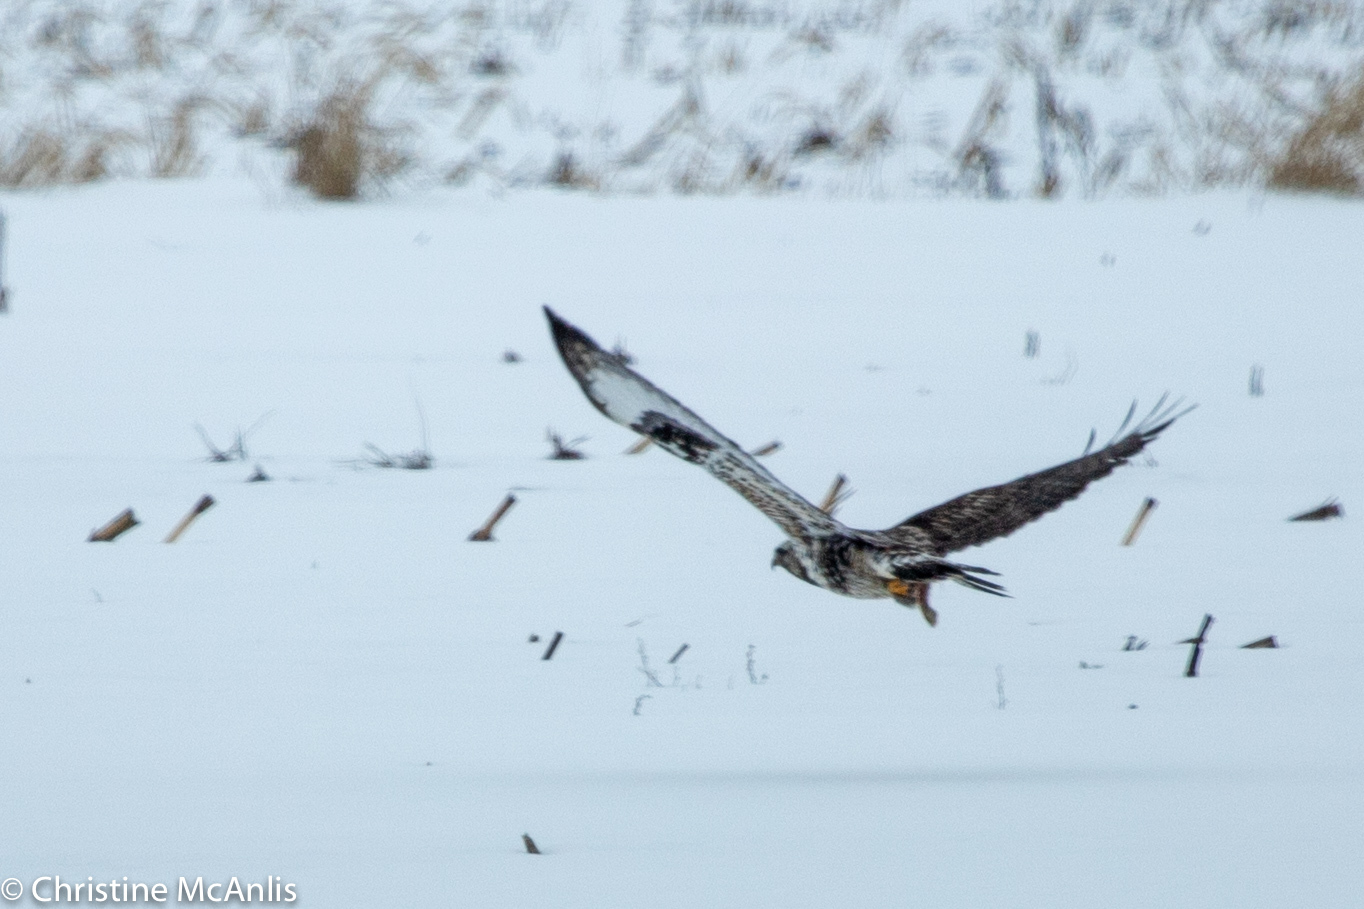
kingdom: Animalia
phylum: Chordata
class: Aves
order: Accipitriformes
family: Accipitridae
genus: Buteo
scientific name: Buteo lagopus
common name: Rough-legged buzzard
